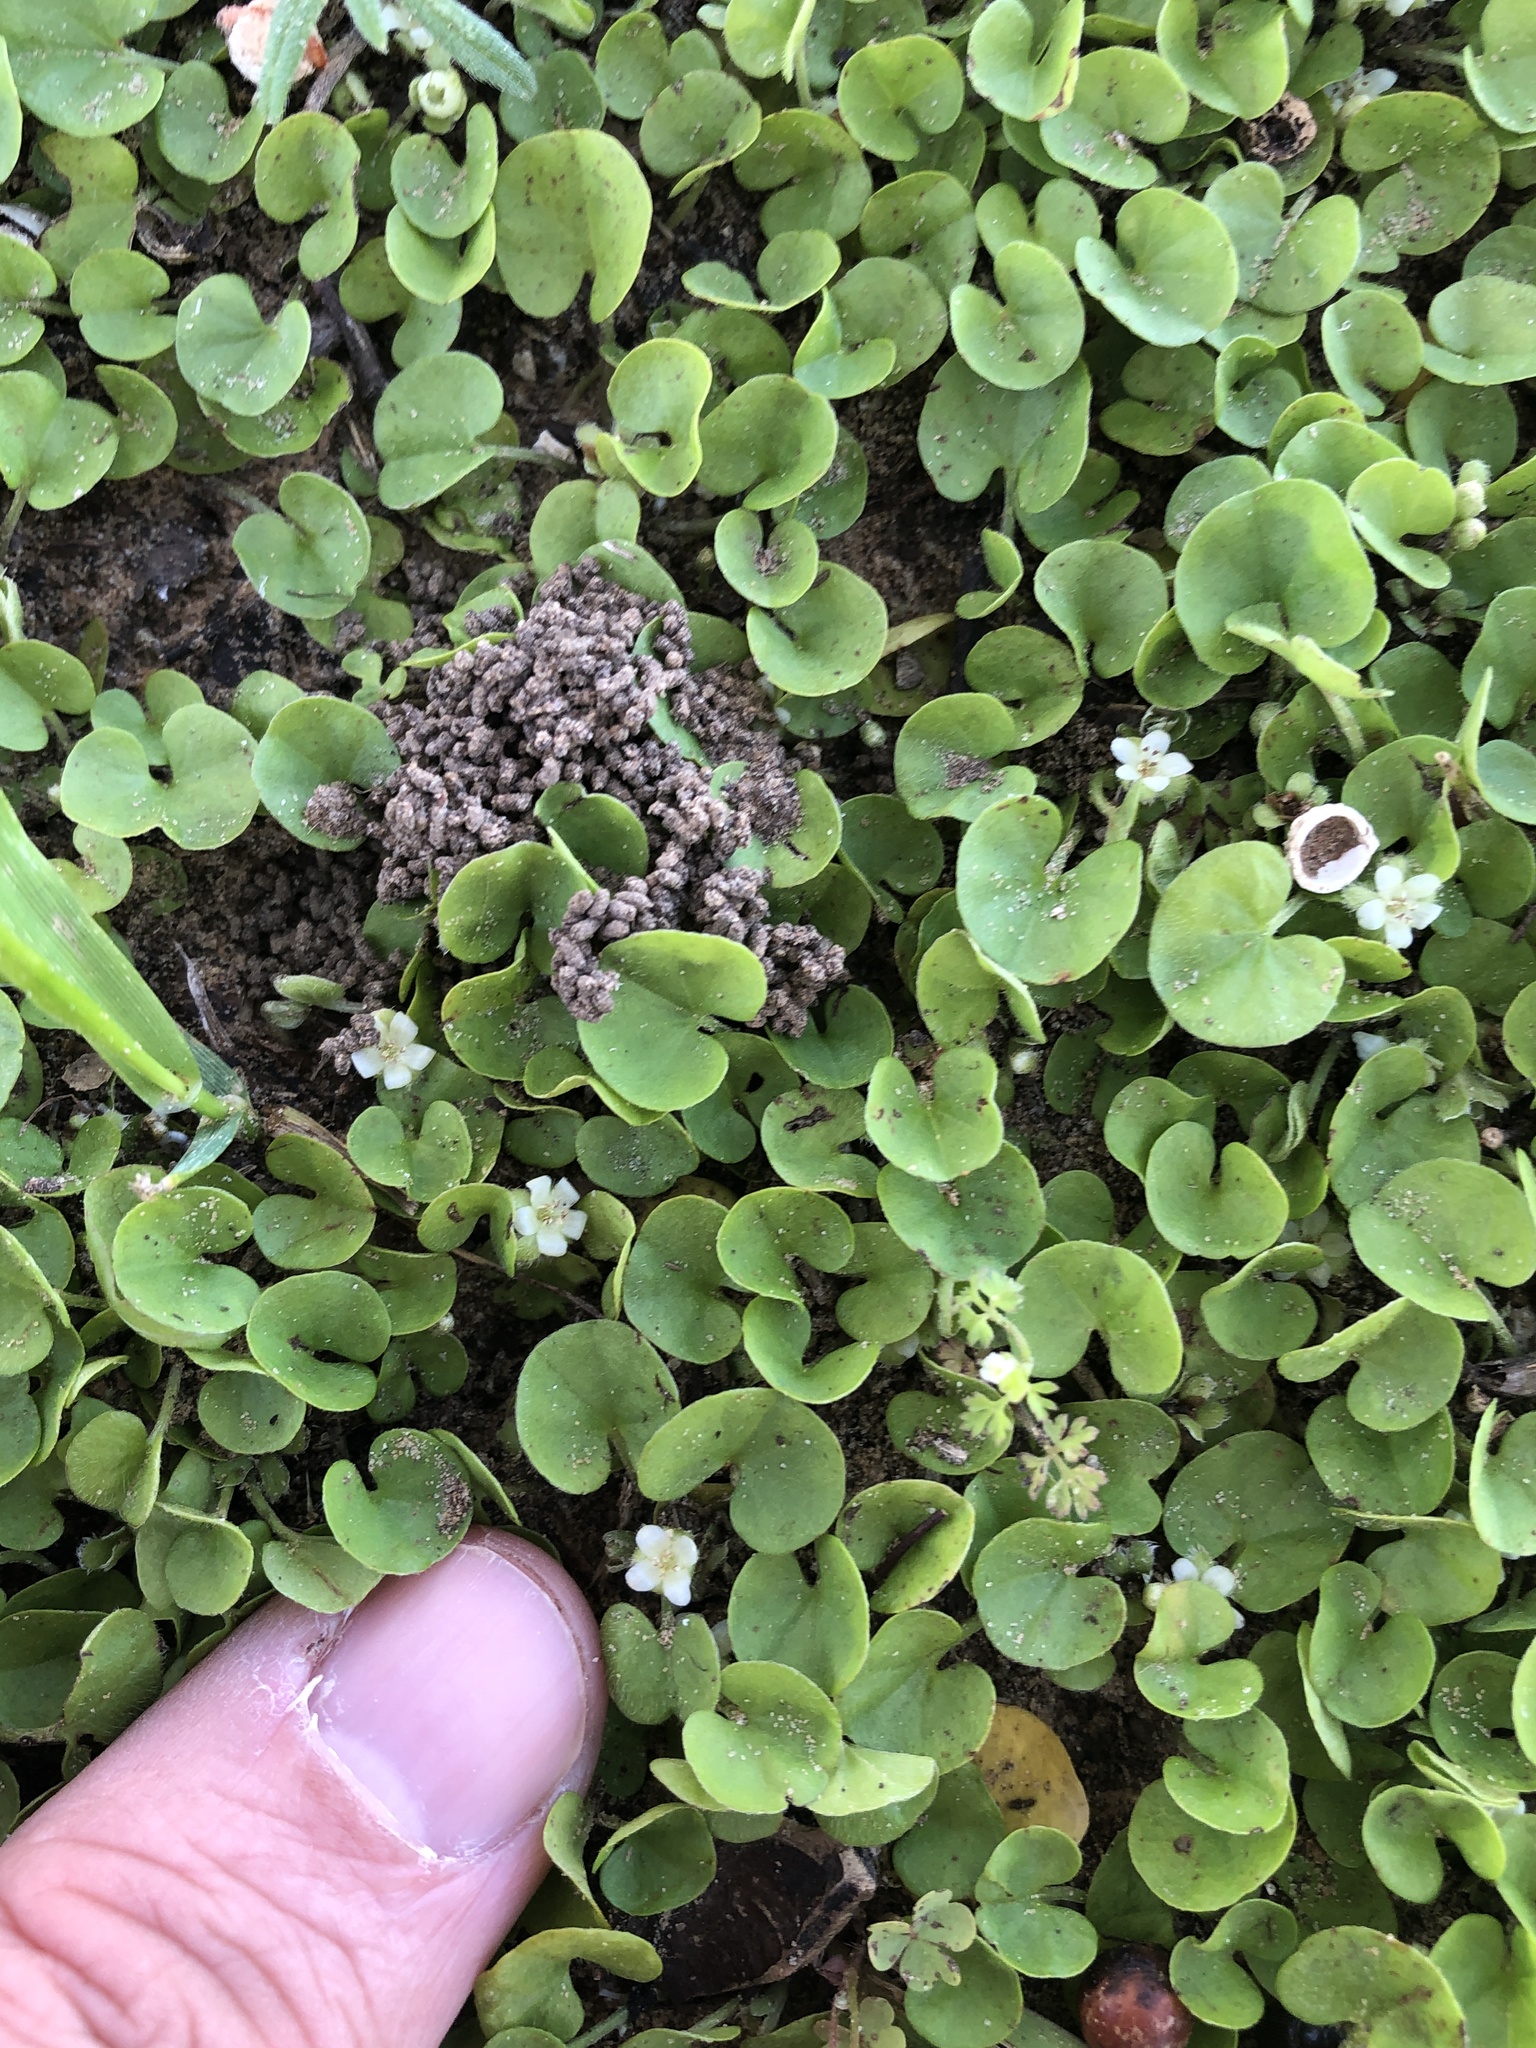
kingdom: Plantae
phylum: Tracheophyta
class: Magnoliopsida
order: Solanales
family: Convolvulaceae
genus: Dichondra
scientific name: Dichondra carolinensis
